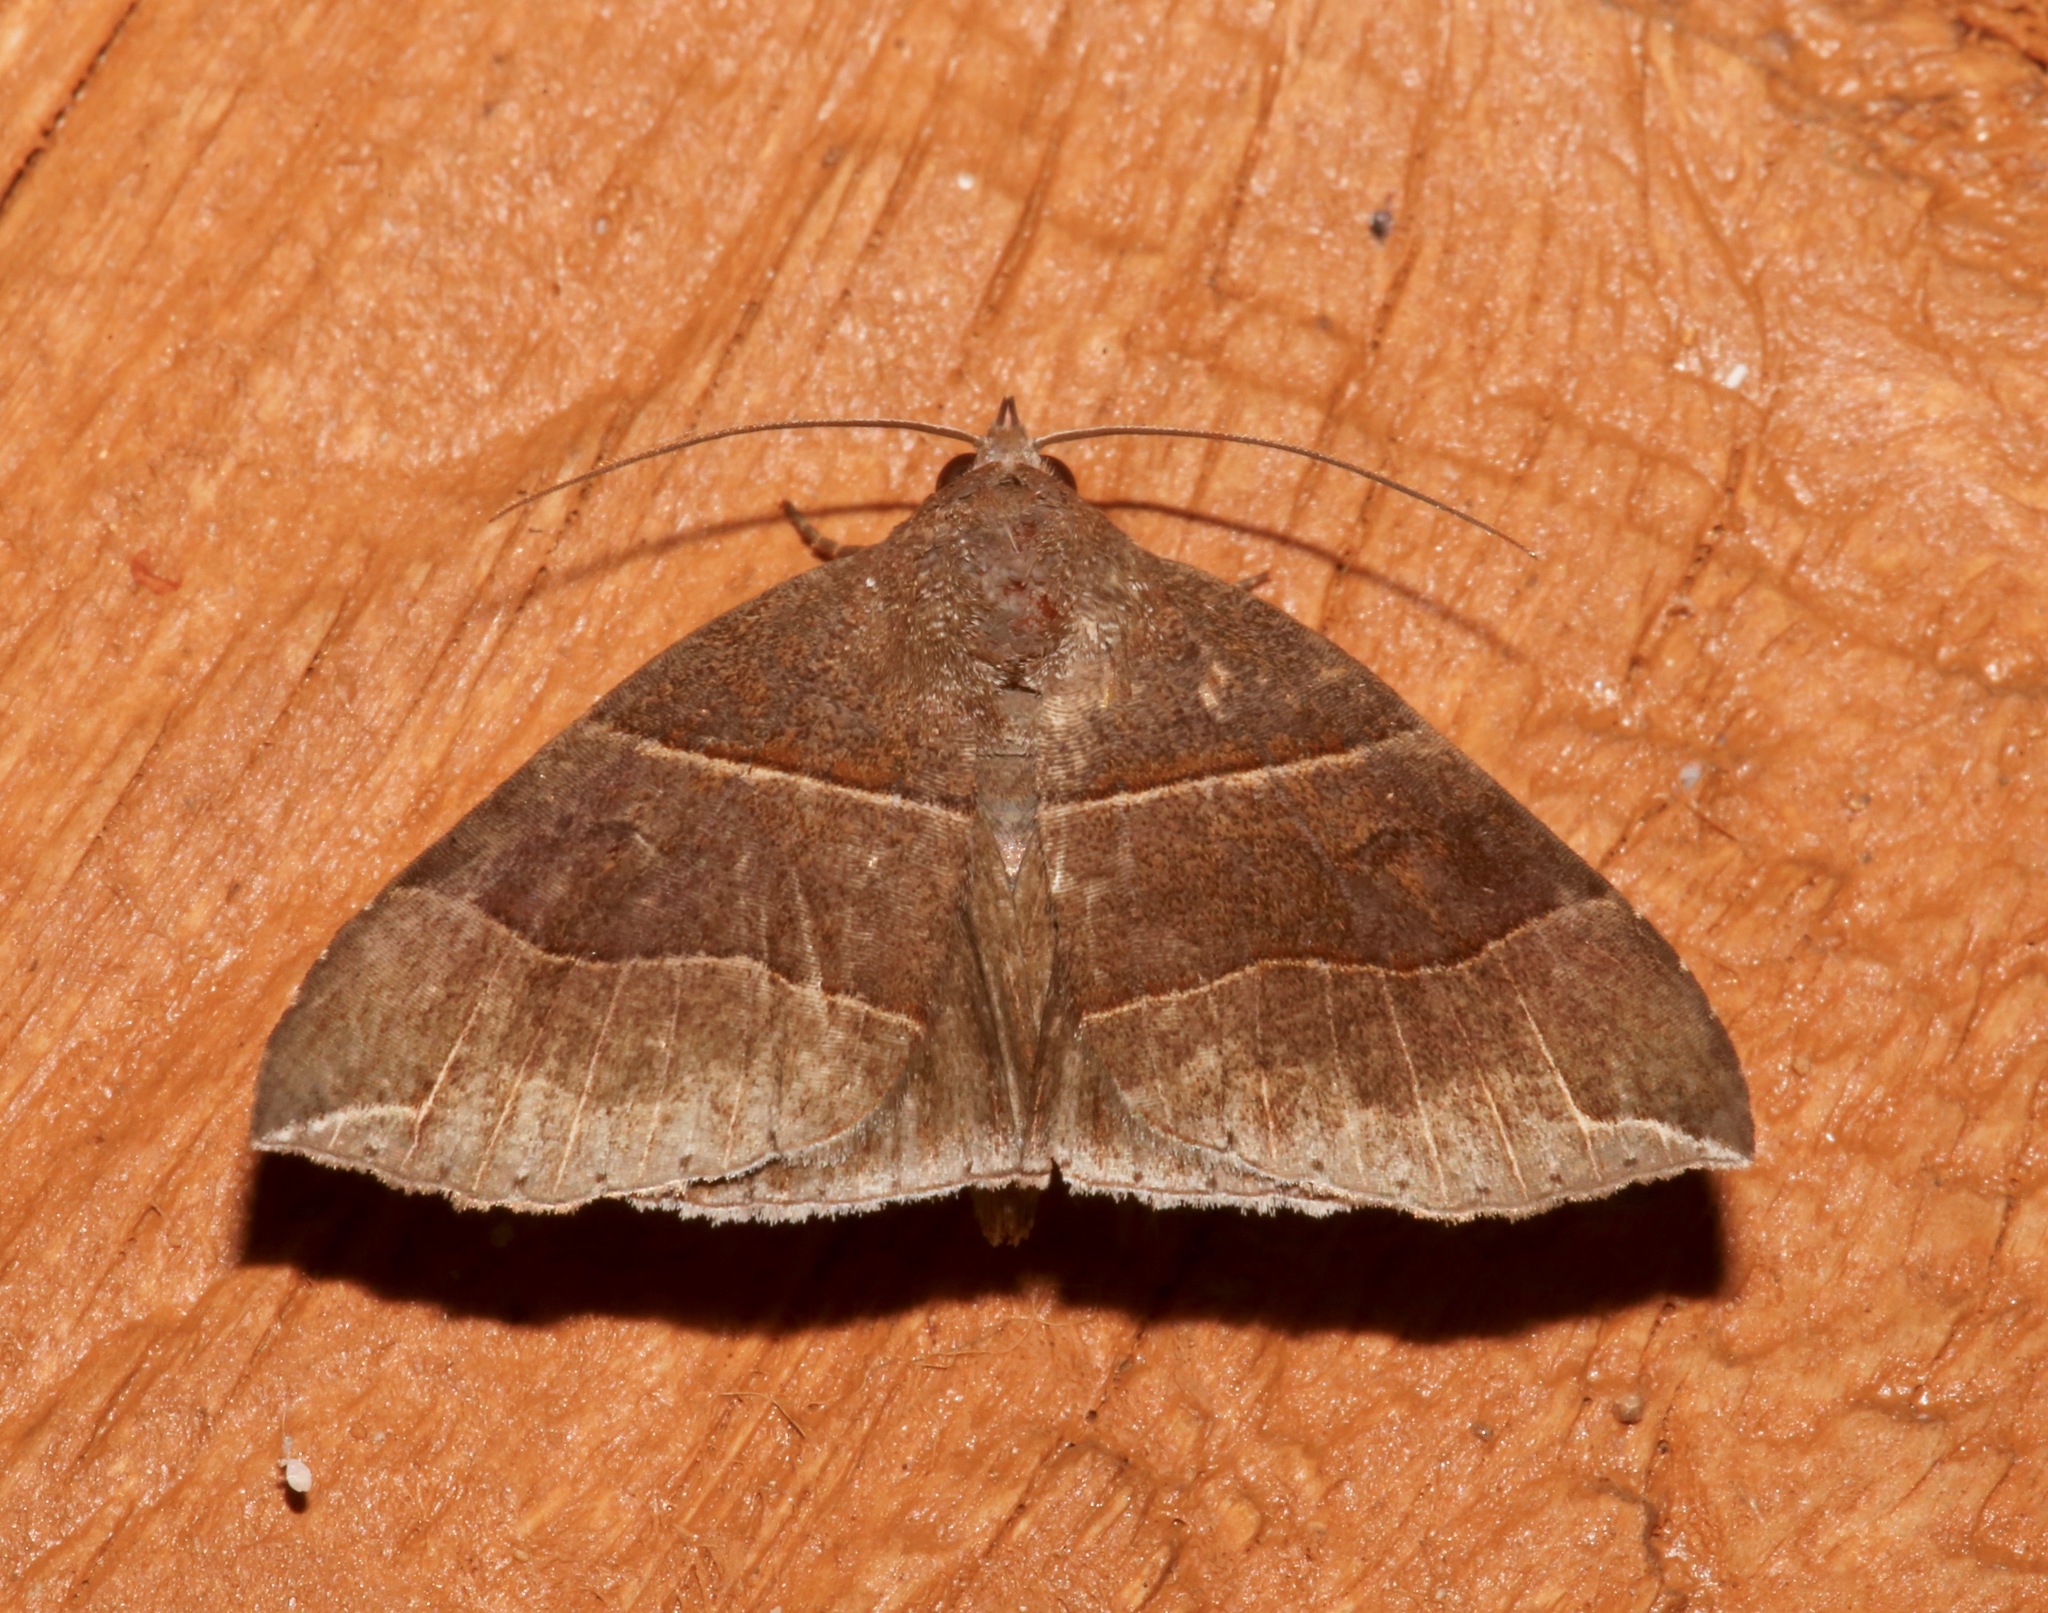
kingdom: Animalia
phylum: Arthropoda
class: Insecta
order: Lepidoptera
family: Erebidae
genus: Parallelia
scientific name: Parallelia bistriaris
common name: Maple looper moth
